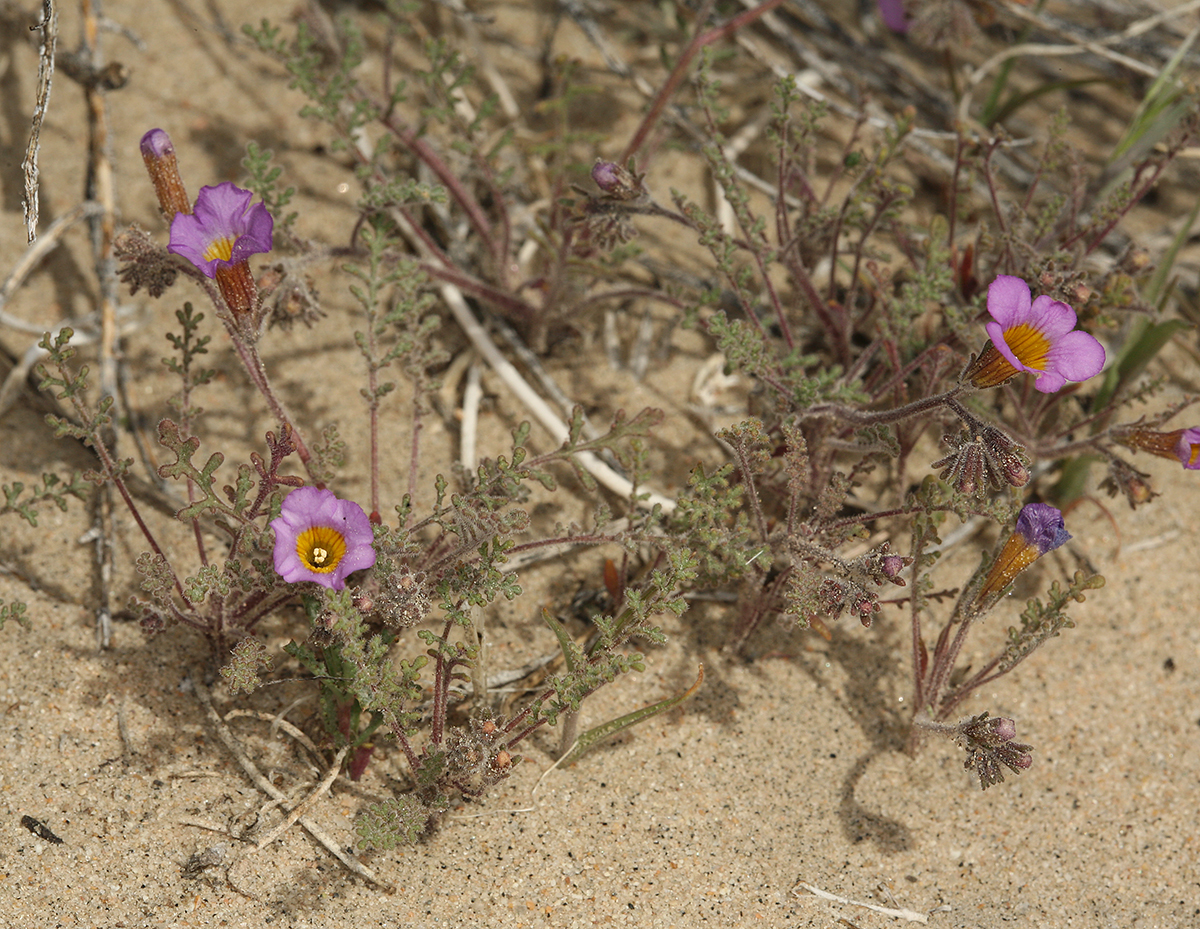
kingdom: Plantae
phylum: Tracheophyta
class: Magnoliopsida
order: Boraginales
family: Hydrophyllaceae
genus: Phacelia
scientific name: Phacelia bicolor
